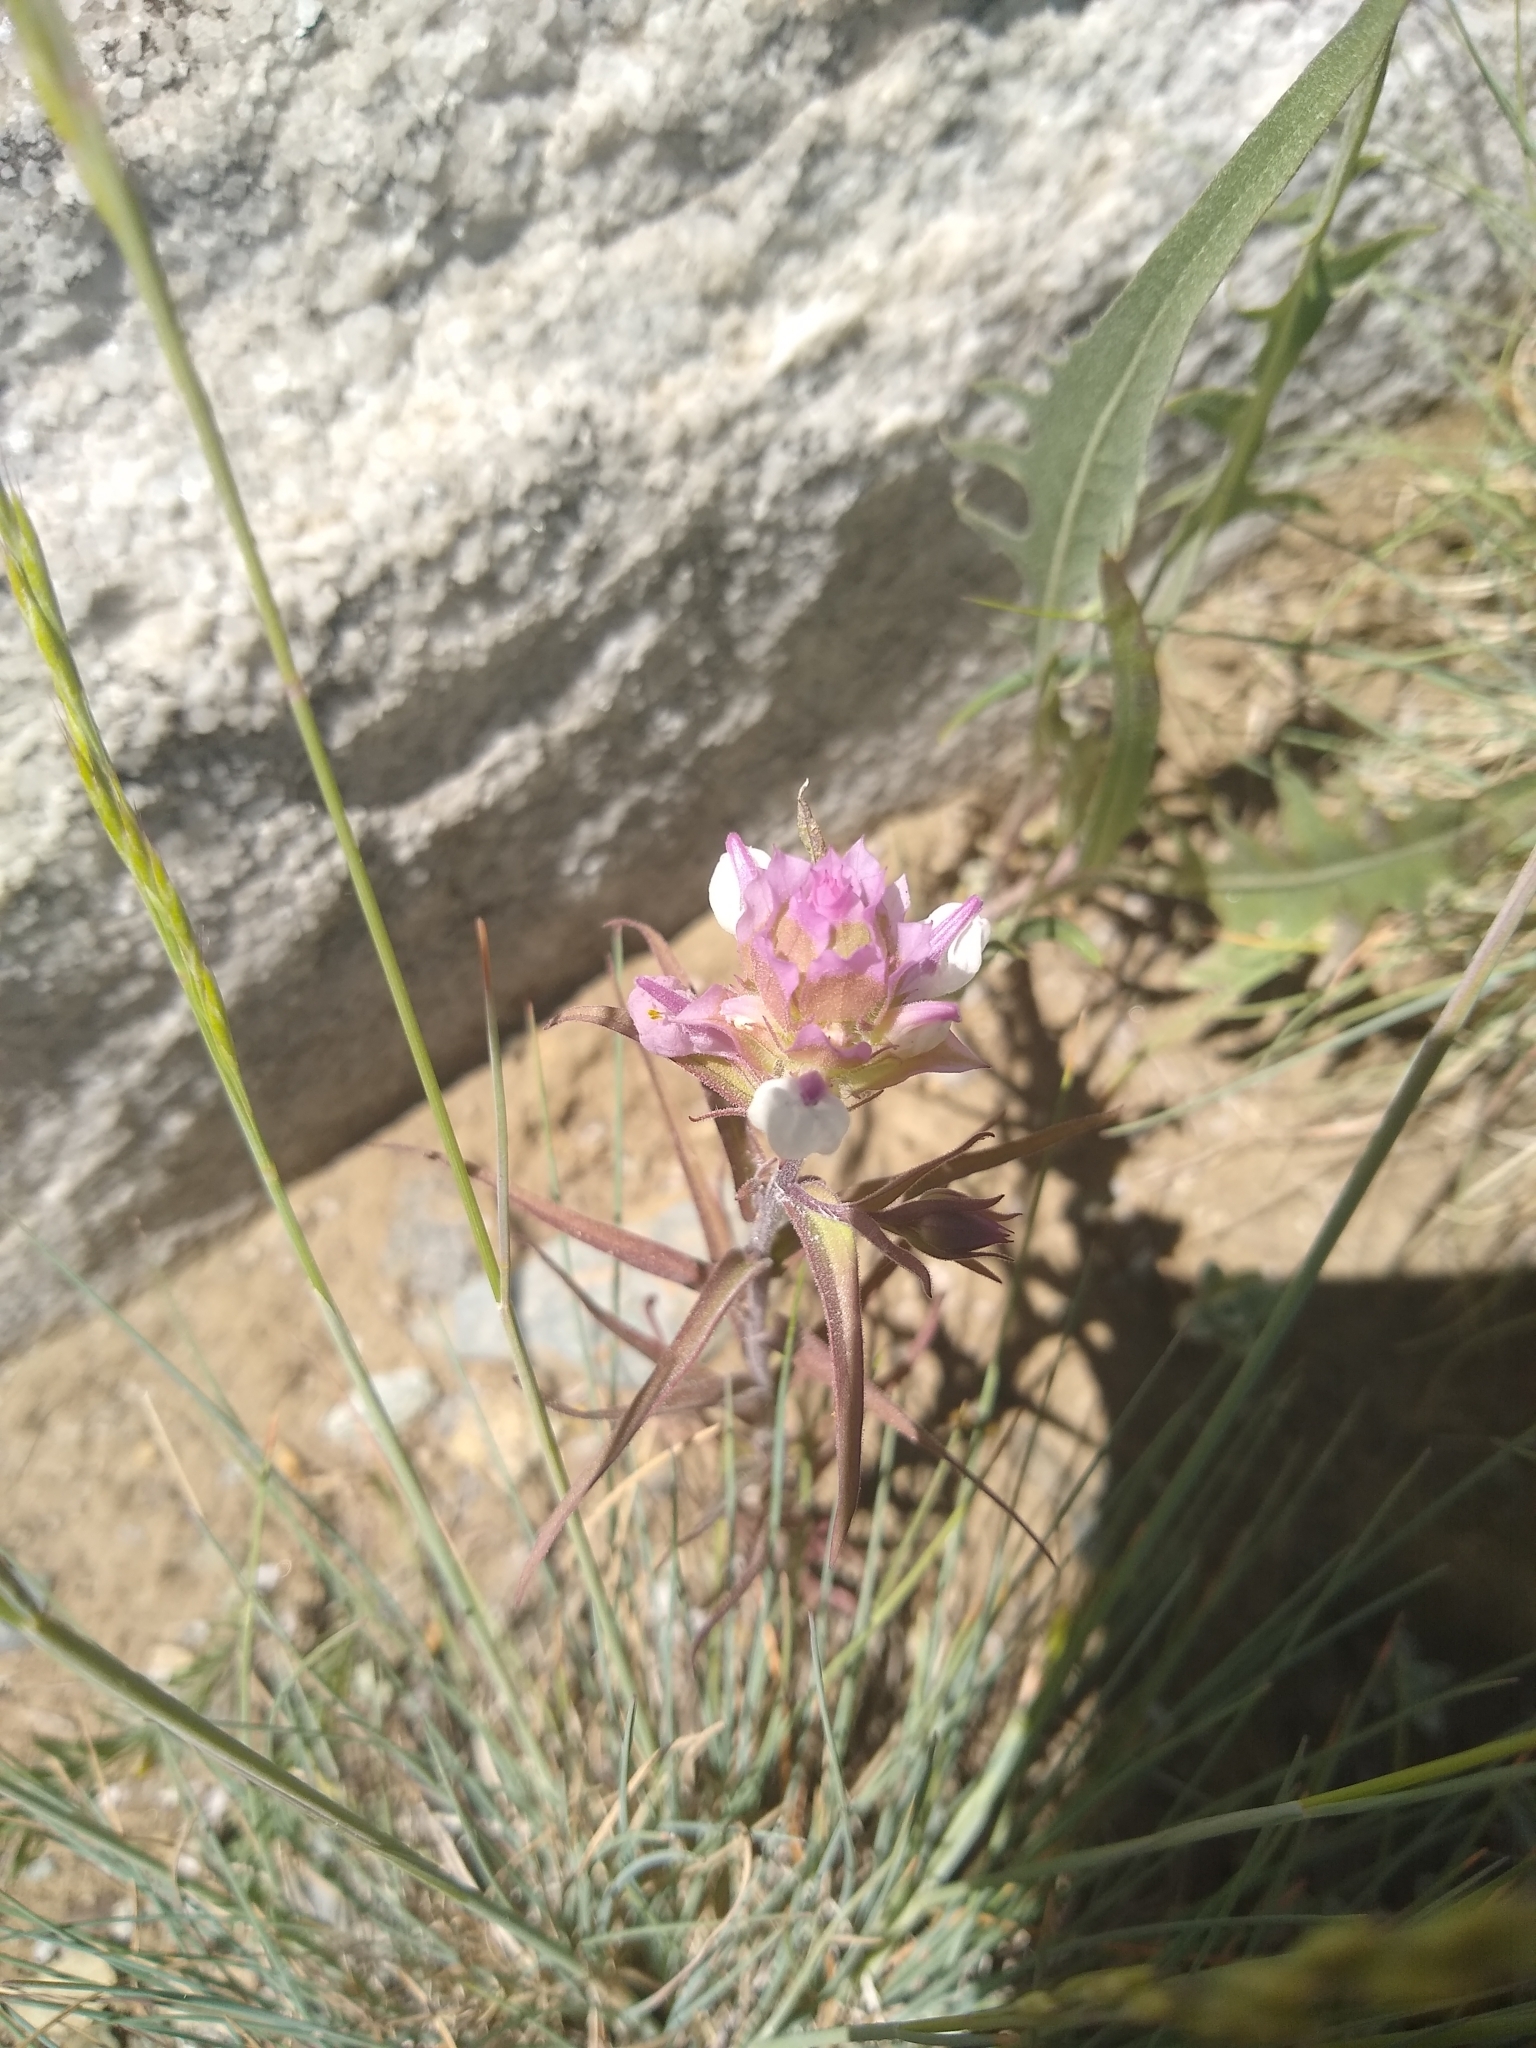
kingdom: Plantae
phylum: Tracheophyta
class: Magnoliopsida
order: Lamiales
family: Orobanchaceae
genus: Orthocarpus
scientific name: Orthocarpus cuspidatus
